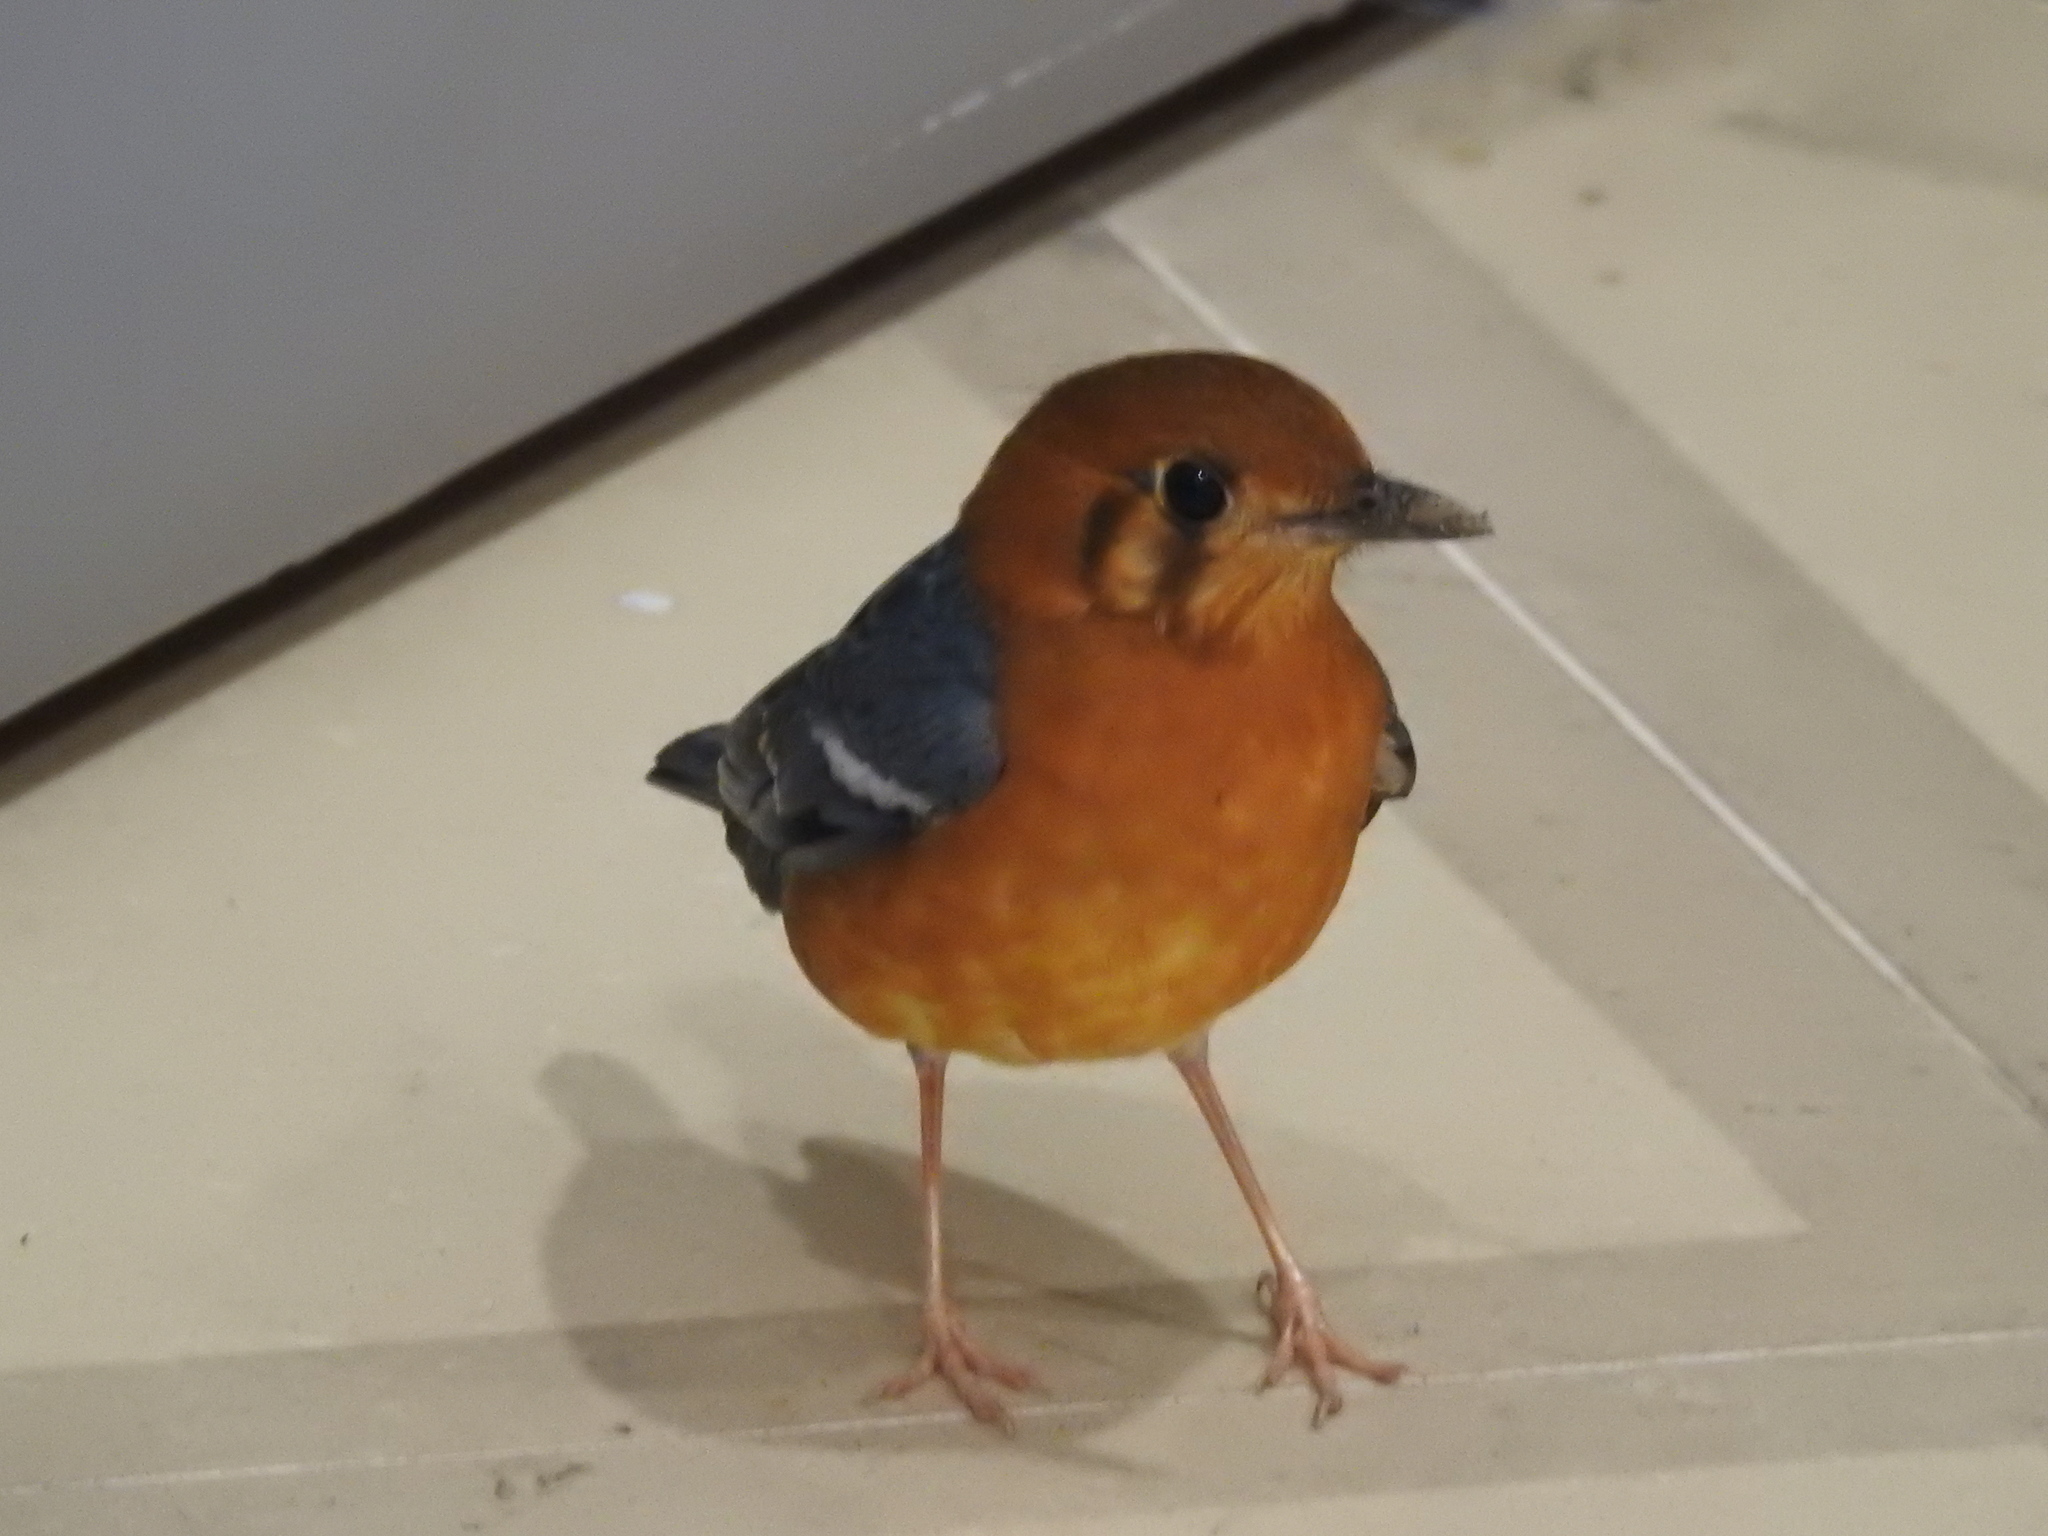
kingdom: Animalia
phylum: Chordata
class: Aves
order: Passeriformes
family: Turdidae
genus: Geokichla
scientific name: Geokichla citrina
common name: Orange-headed thrush
